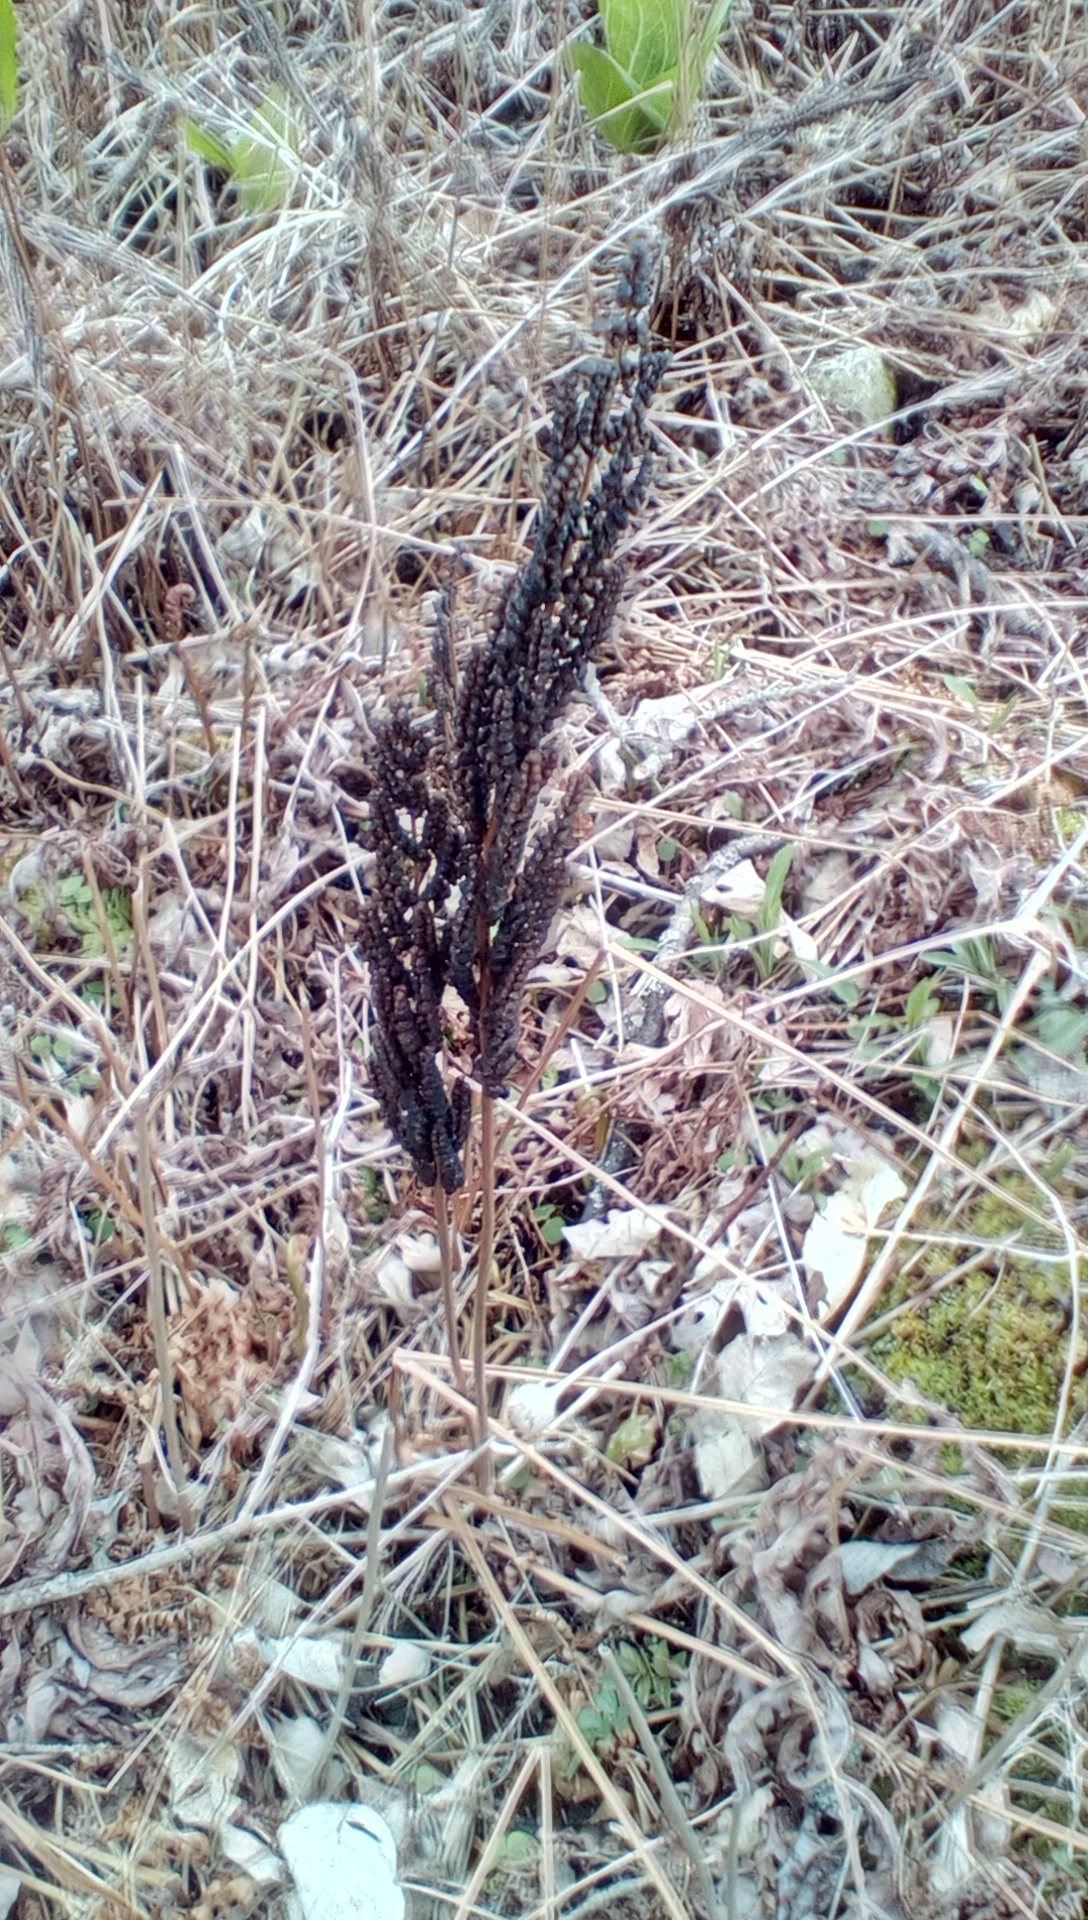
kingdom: Plantae
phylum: Tracheophyta
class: Polypodiopsida
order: Polypodiales
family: Onocleaceae
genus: Onoclea
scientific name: Onoclea sensibilis
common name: Sensitive fern
